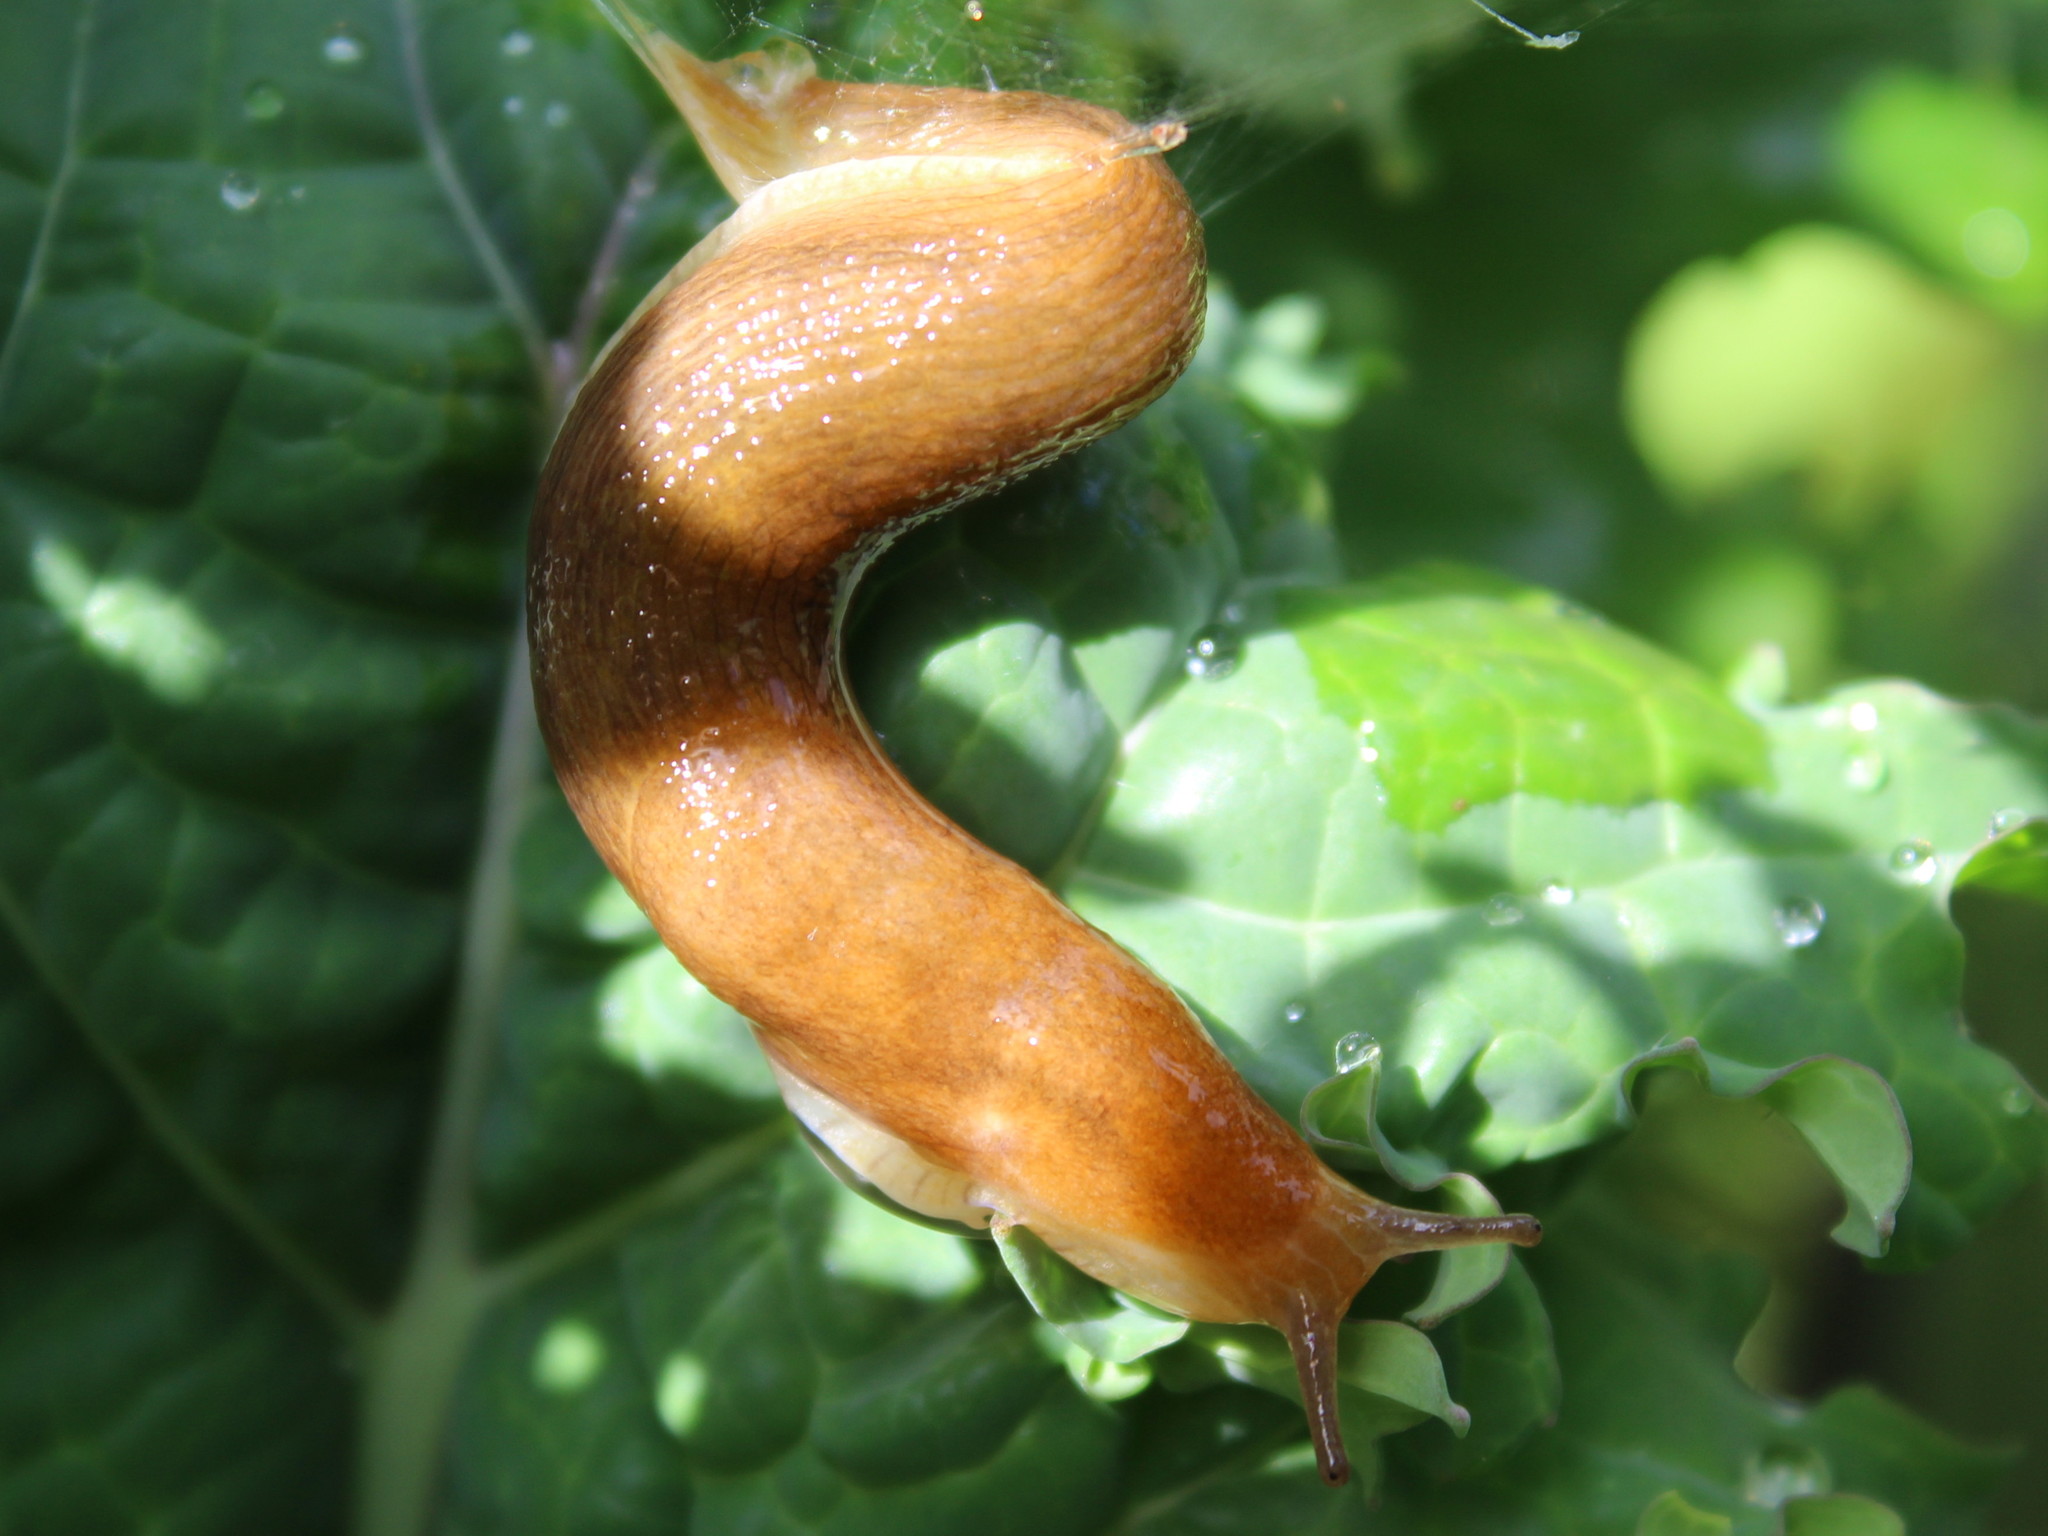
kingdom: Animalia
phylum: Mollusca
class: Gastropoda
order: Stylommatophora
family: Arionidae
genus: Arion
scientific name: Arion subfuscus
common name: Dusky arion
